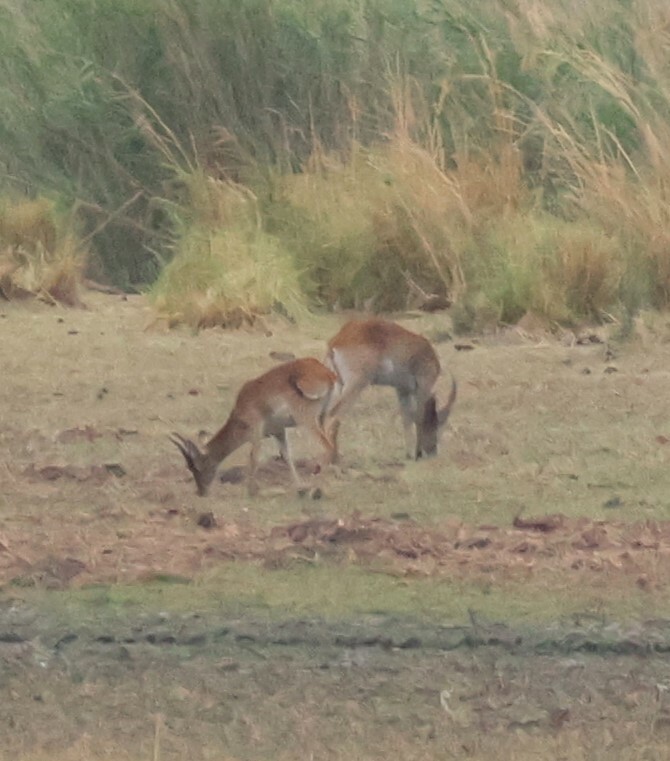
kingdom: Animalia
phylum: Chordata
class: Mammalia
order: Artiodactyla
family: Bovidae
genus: Kobus
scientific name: Kobus leche
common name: Lechwe
